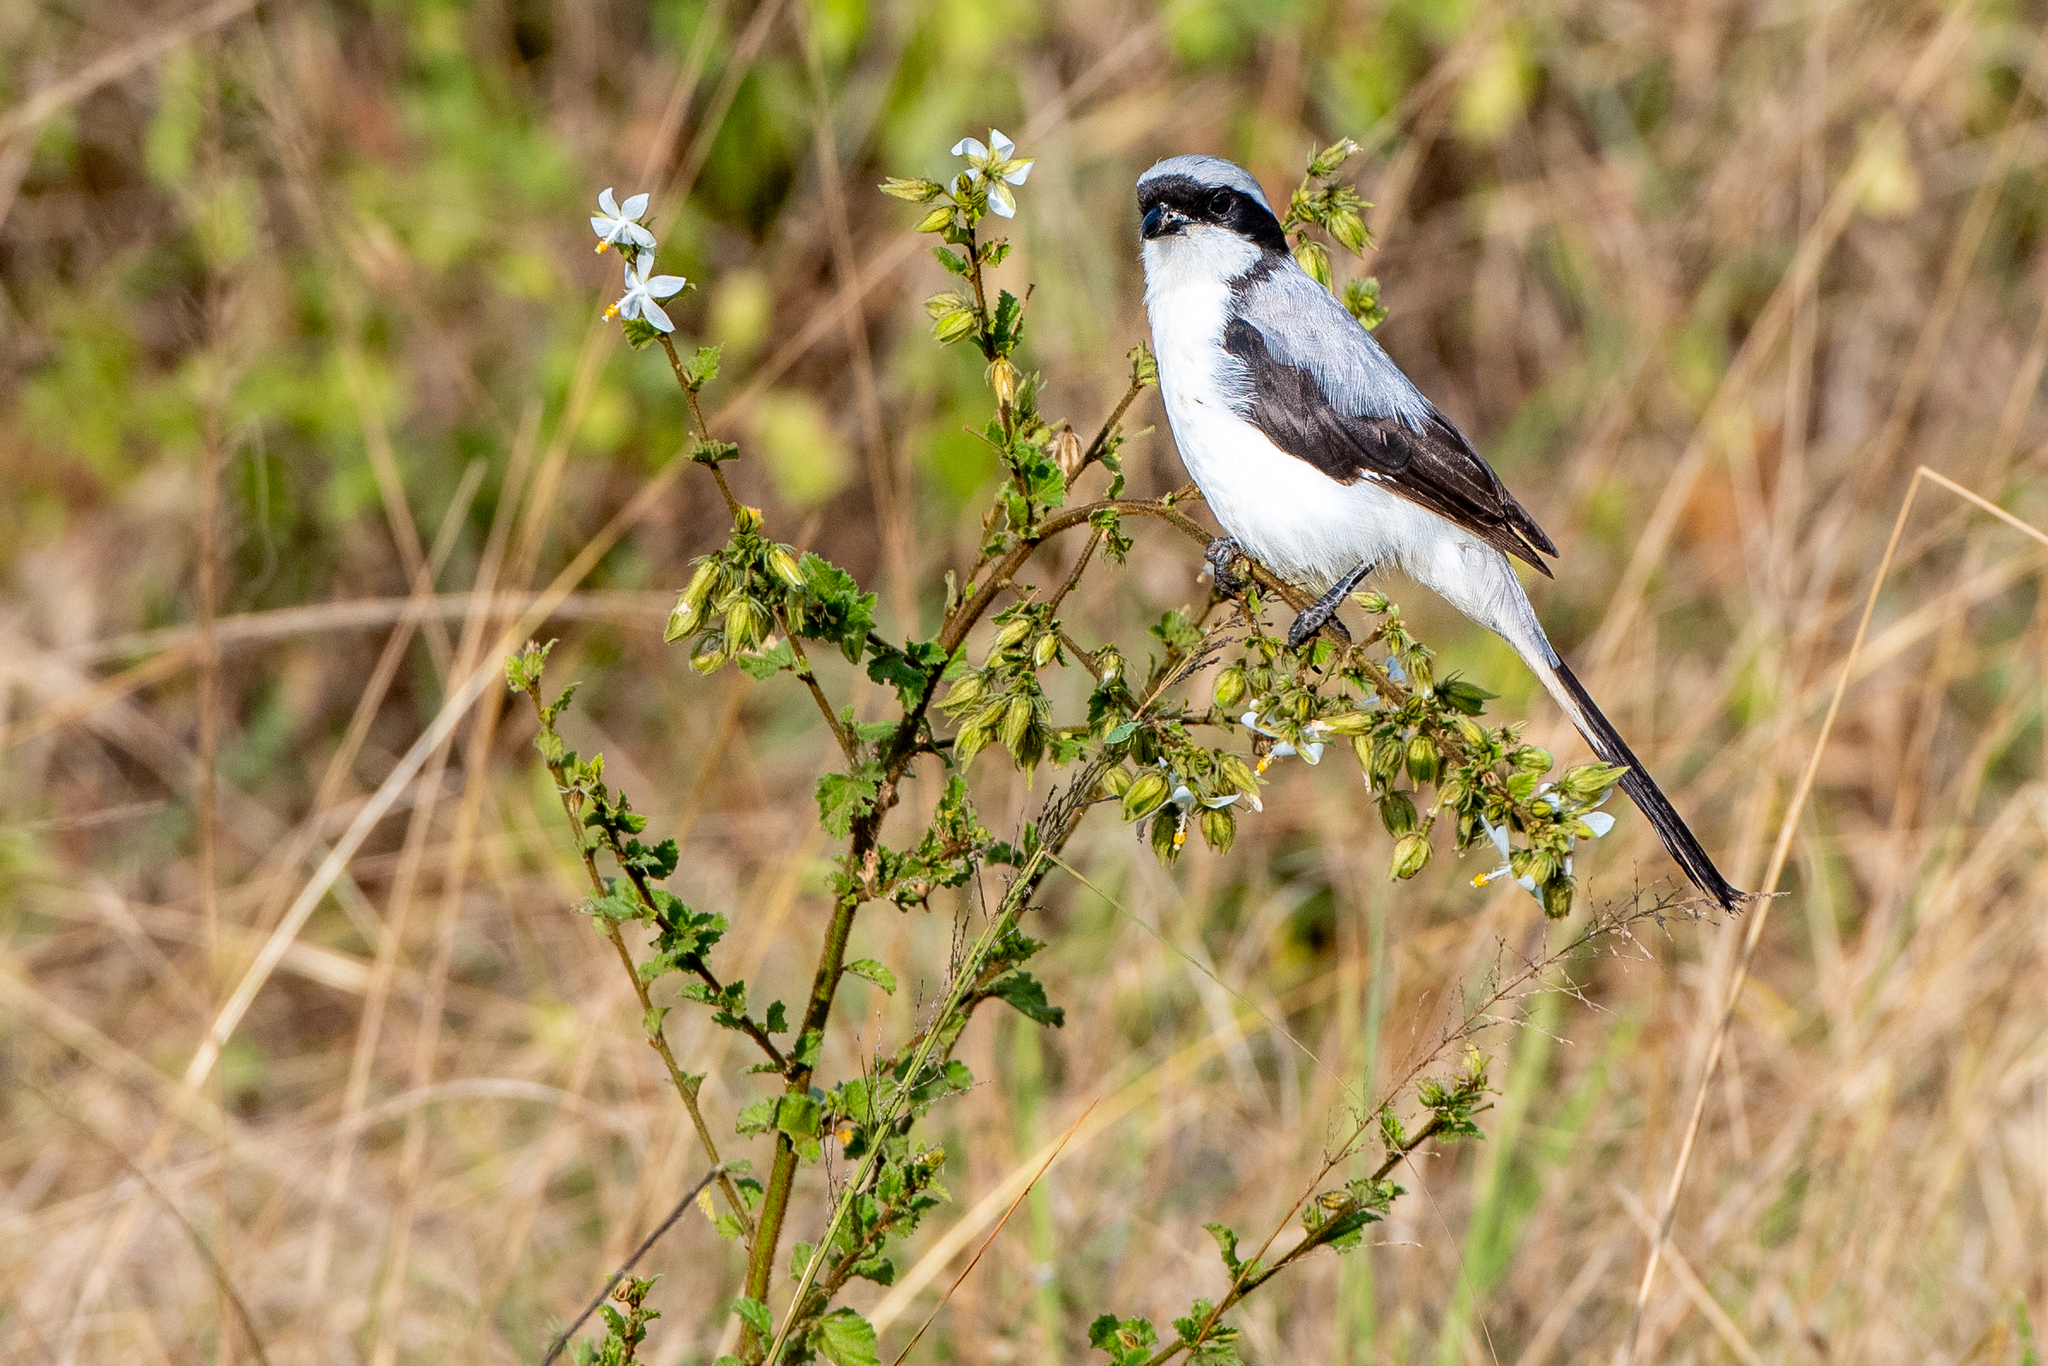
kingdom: Animalia
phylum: Chordata
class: Aves
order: Passeriformes
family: Laniidae
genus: Lanius
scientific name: Lanius excubitoroides
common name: Grey-backed fiscal
